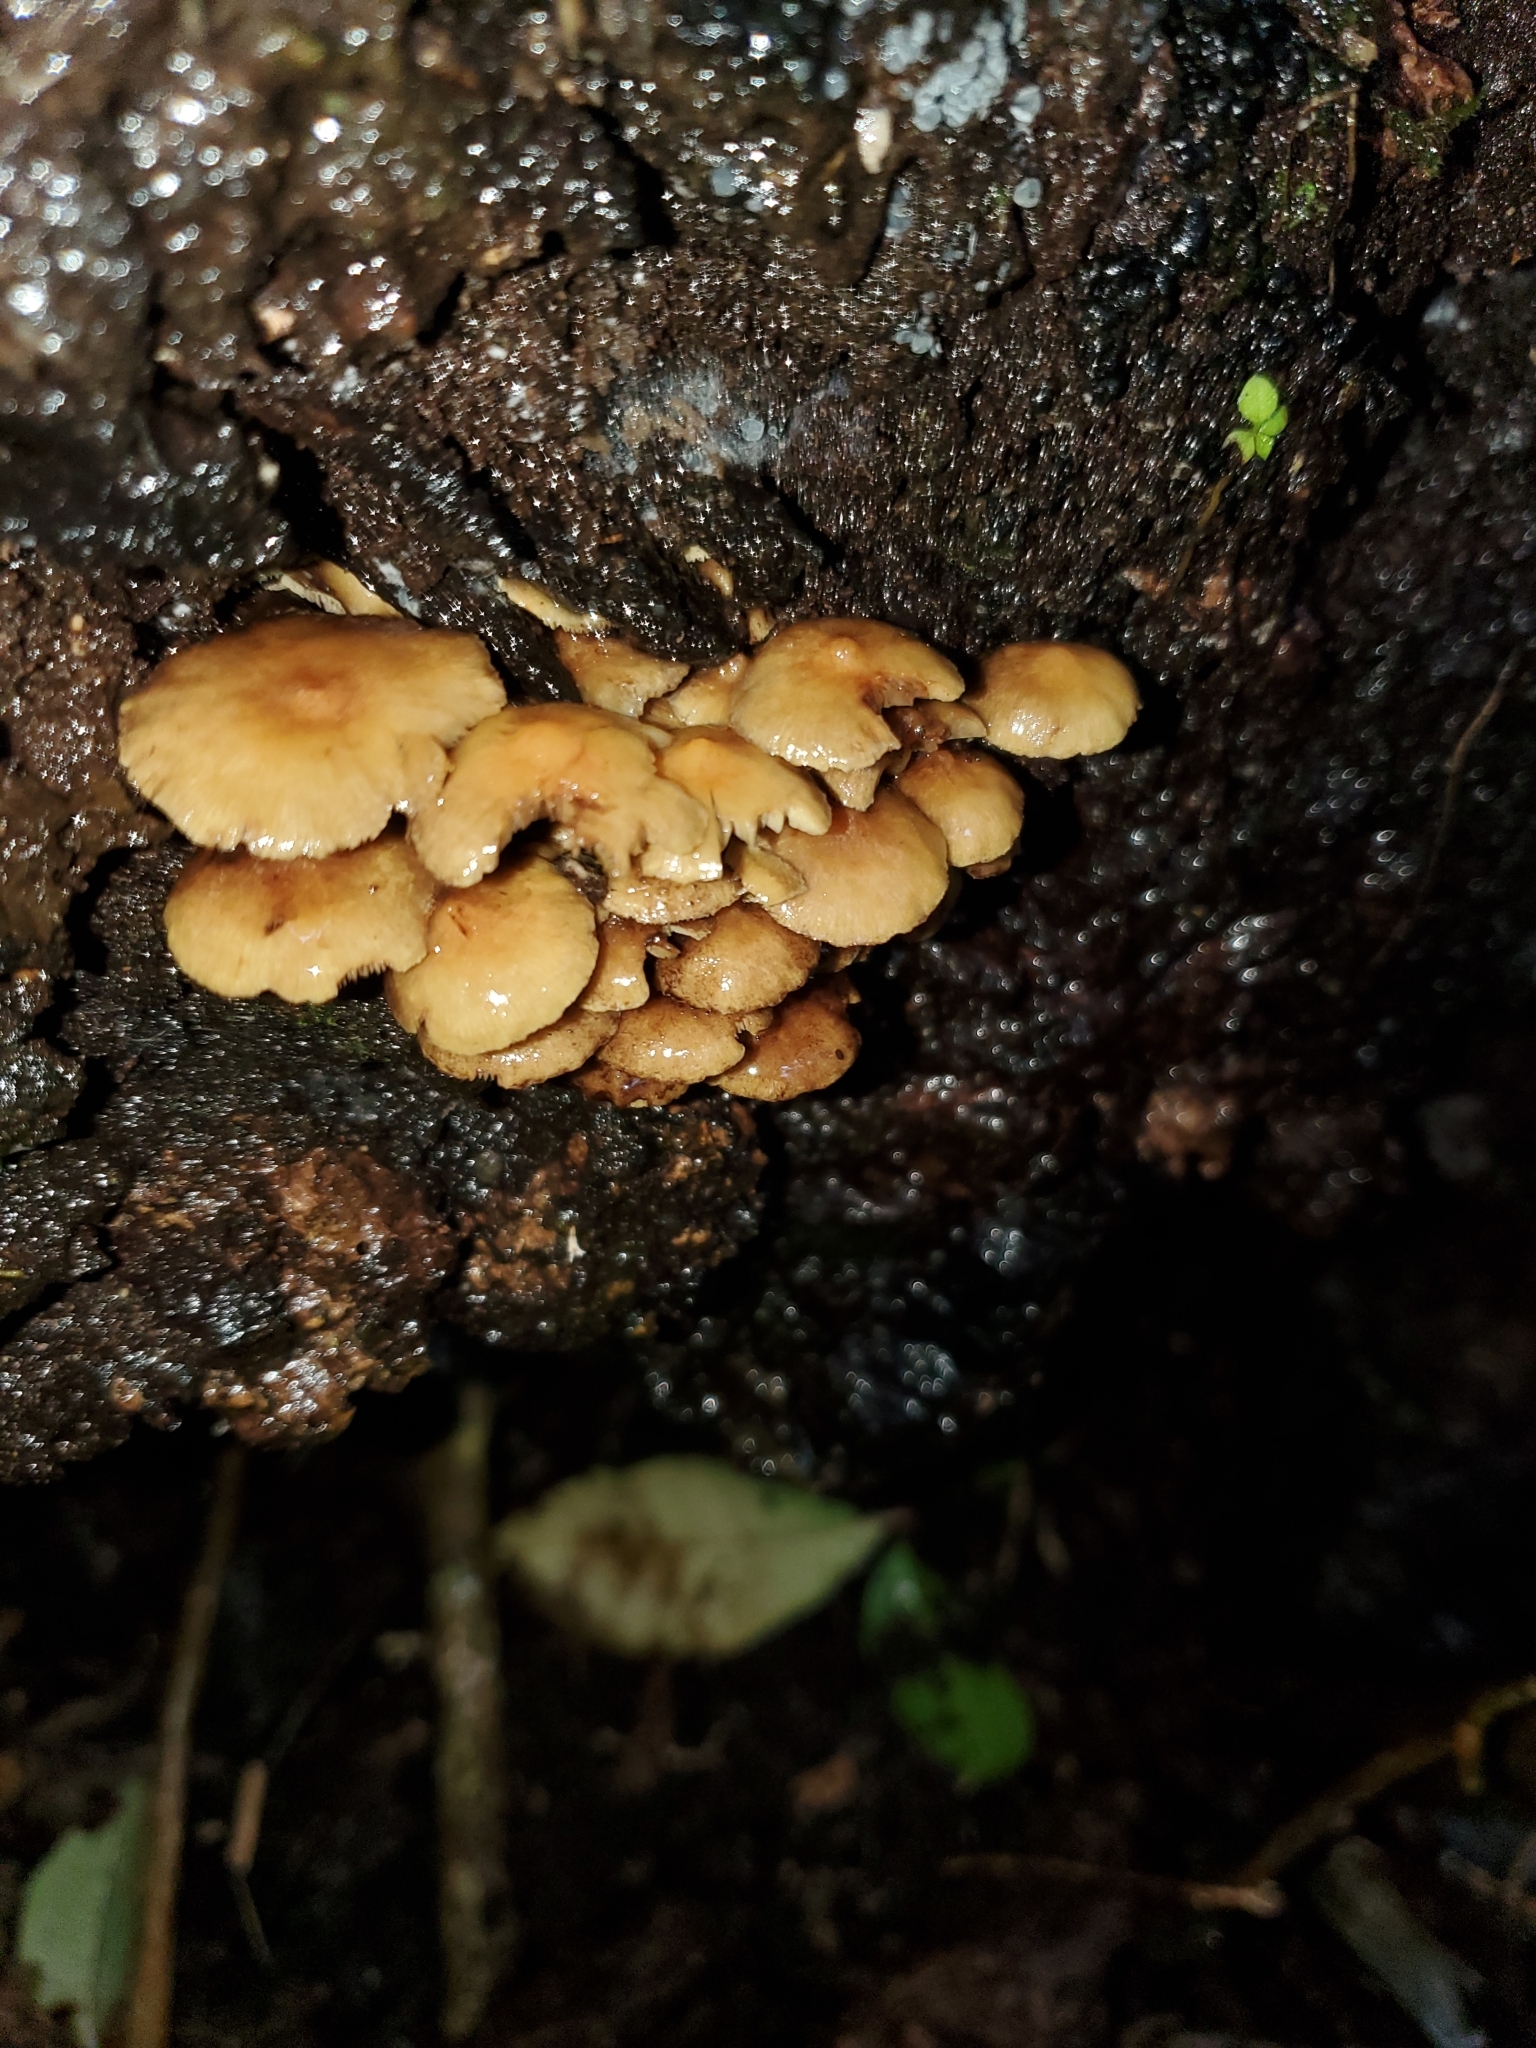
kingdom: Fungi
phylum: Basidiomycota
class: Agaricomycetes
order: Agaricales
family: Strophariaceae
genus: Hypholoma
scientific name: Hypholoma acutum
